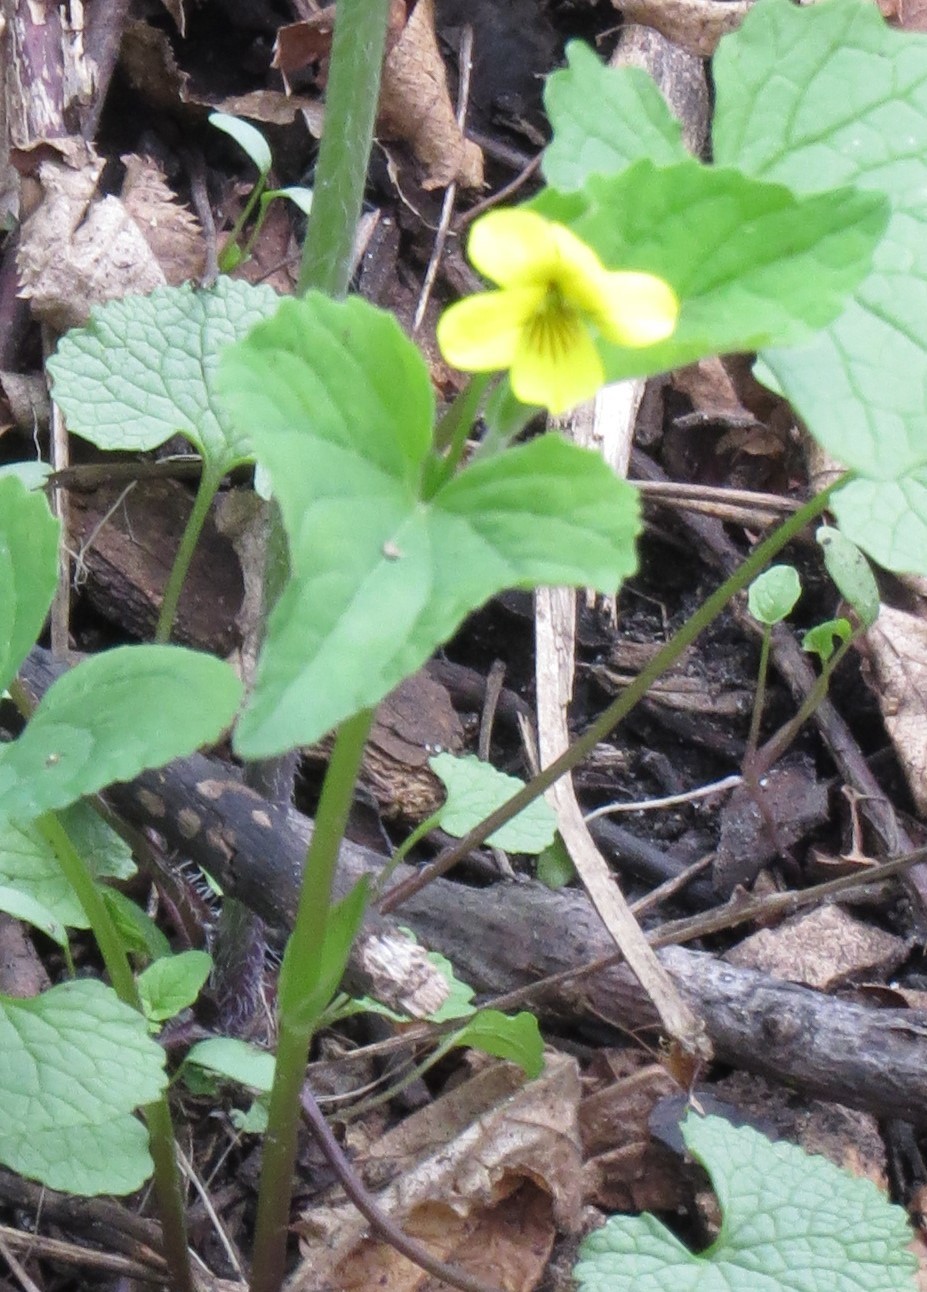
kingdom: Plantae
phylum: Tracheophyta
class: Magnoliopsida
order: Malpighiales
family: Violaceae
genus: Viola
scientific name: Viola eriocarpa
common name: Smooth yellow violet
